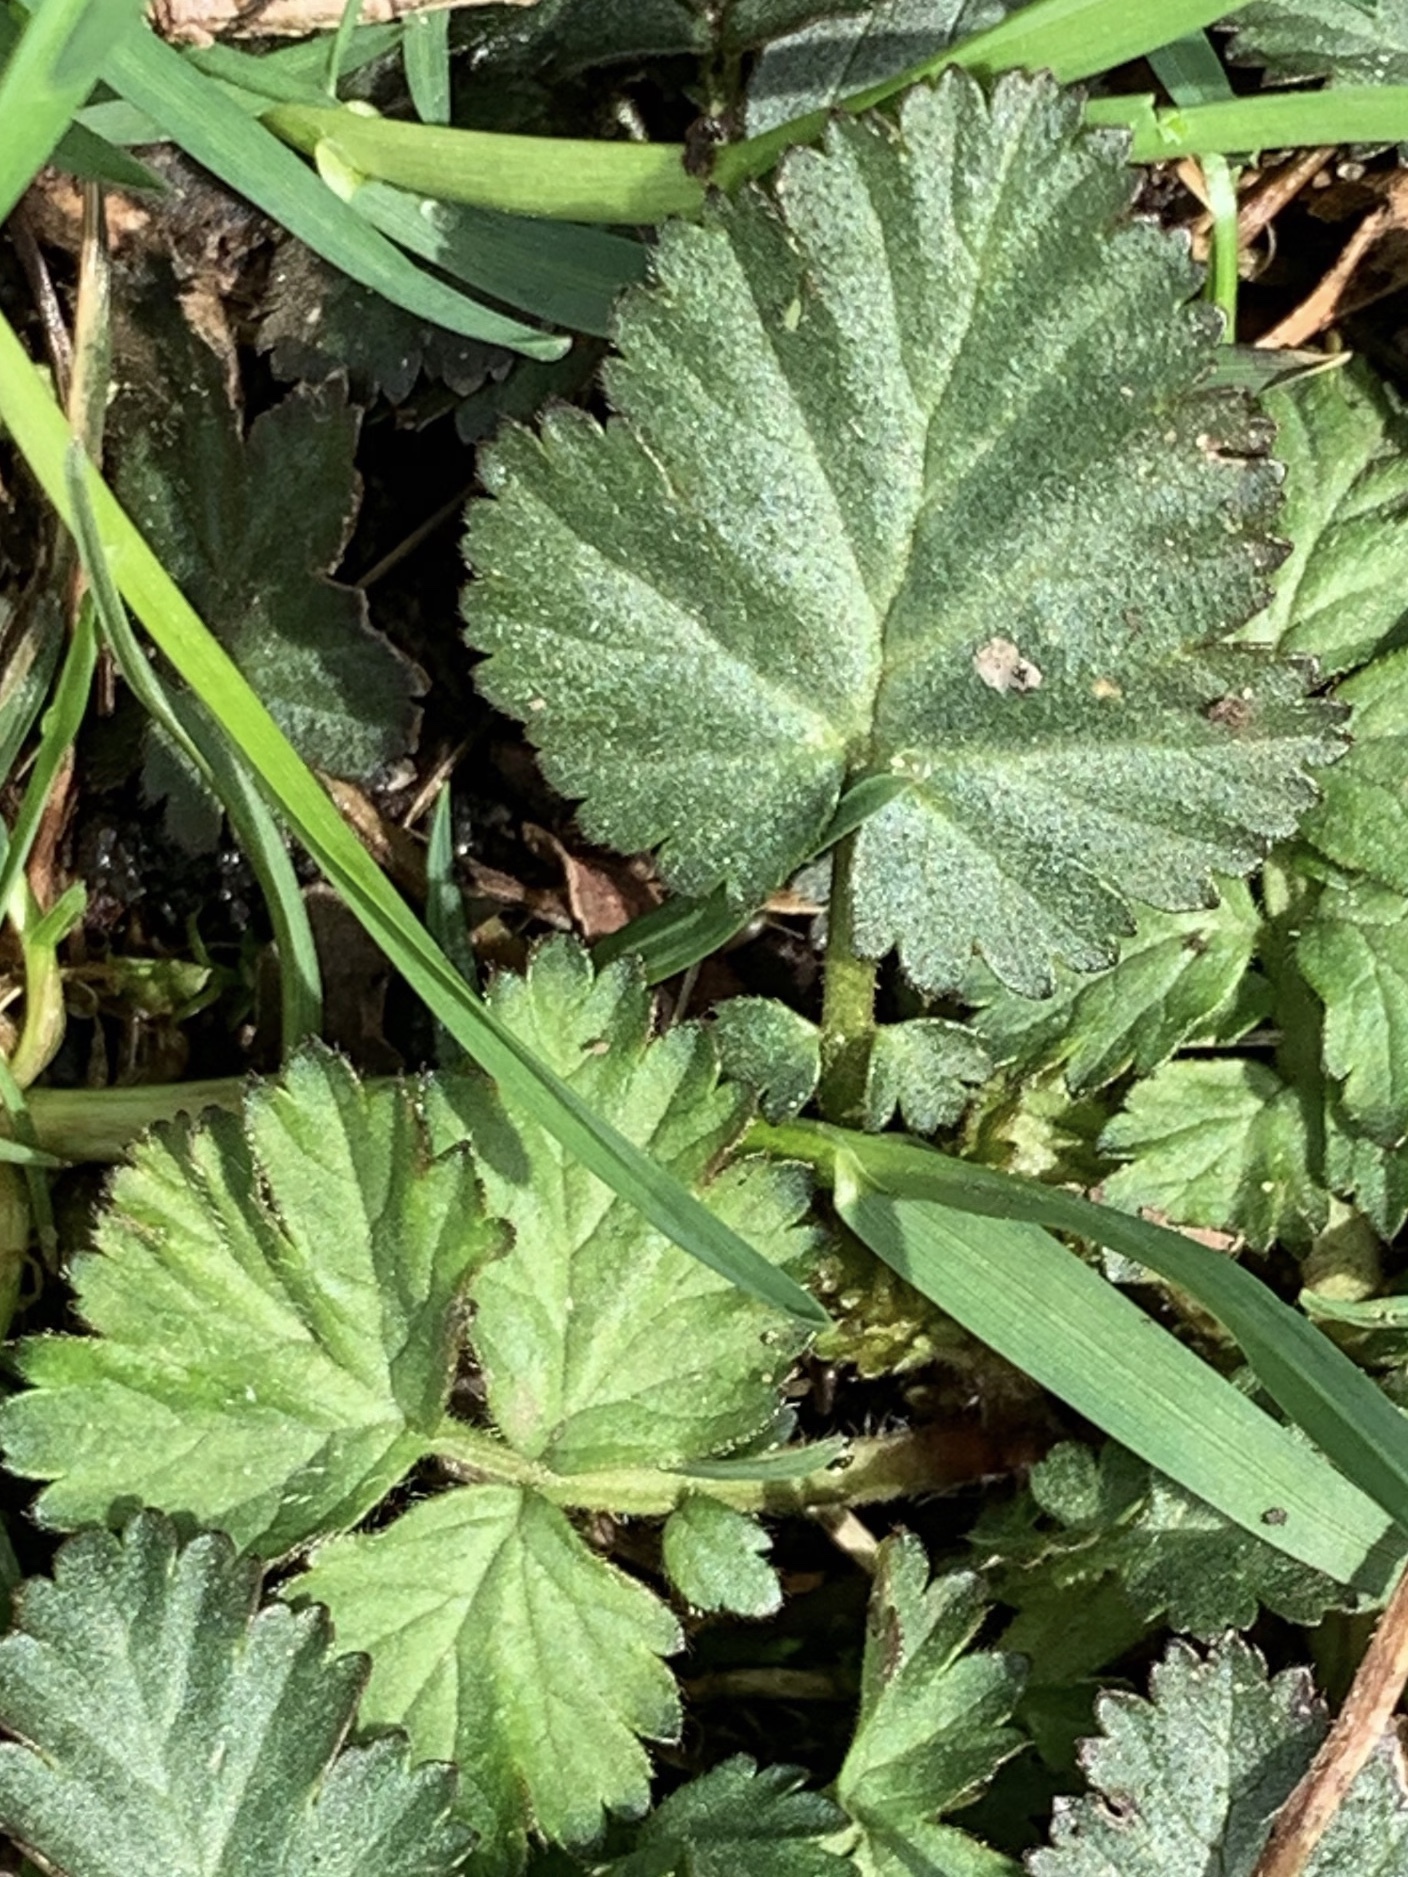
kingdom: Plantae
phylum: Tracheophyta
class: Magnoliopsida
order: Rosales
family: Rosaceae
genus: Geum
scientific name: Geum canadense
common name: White avens
